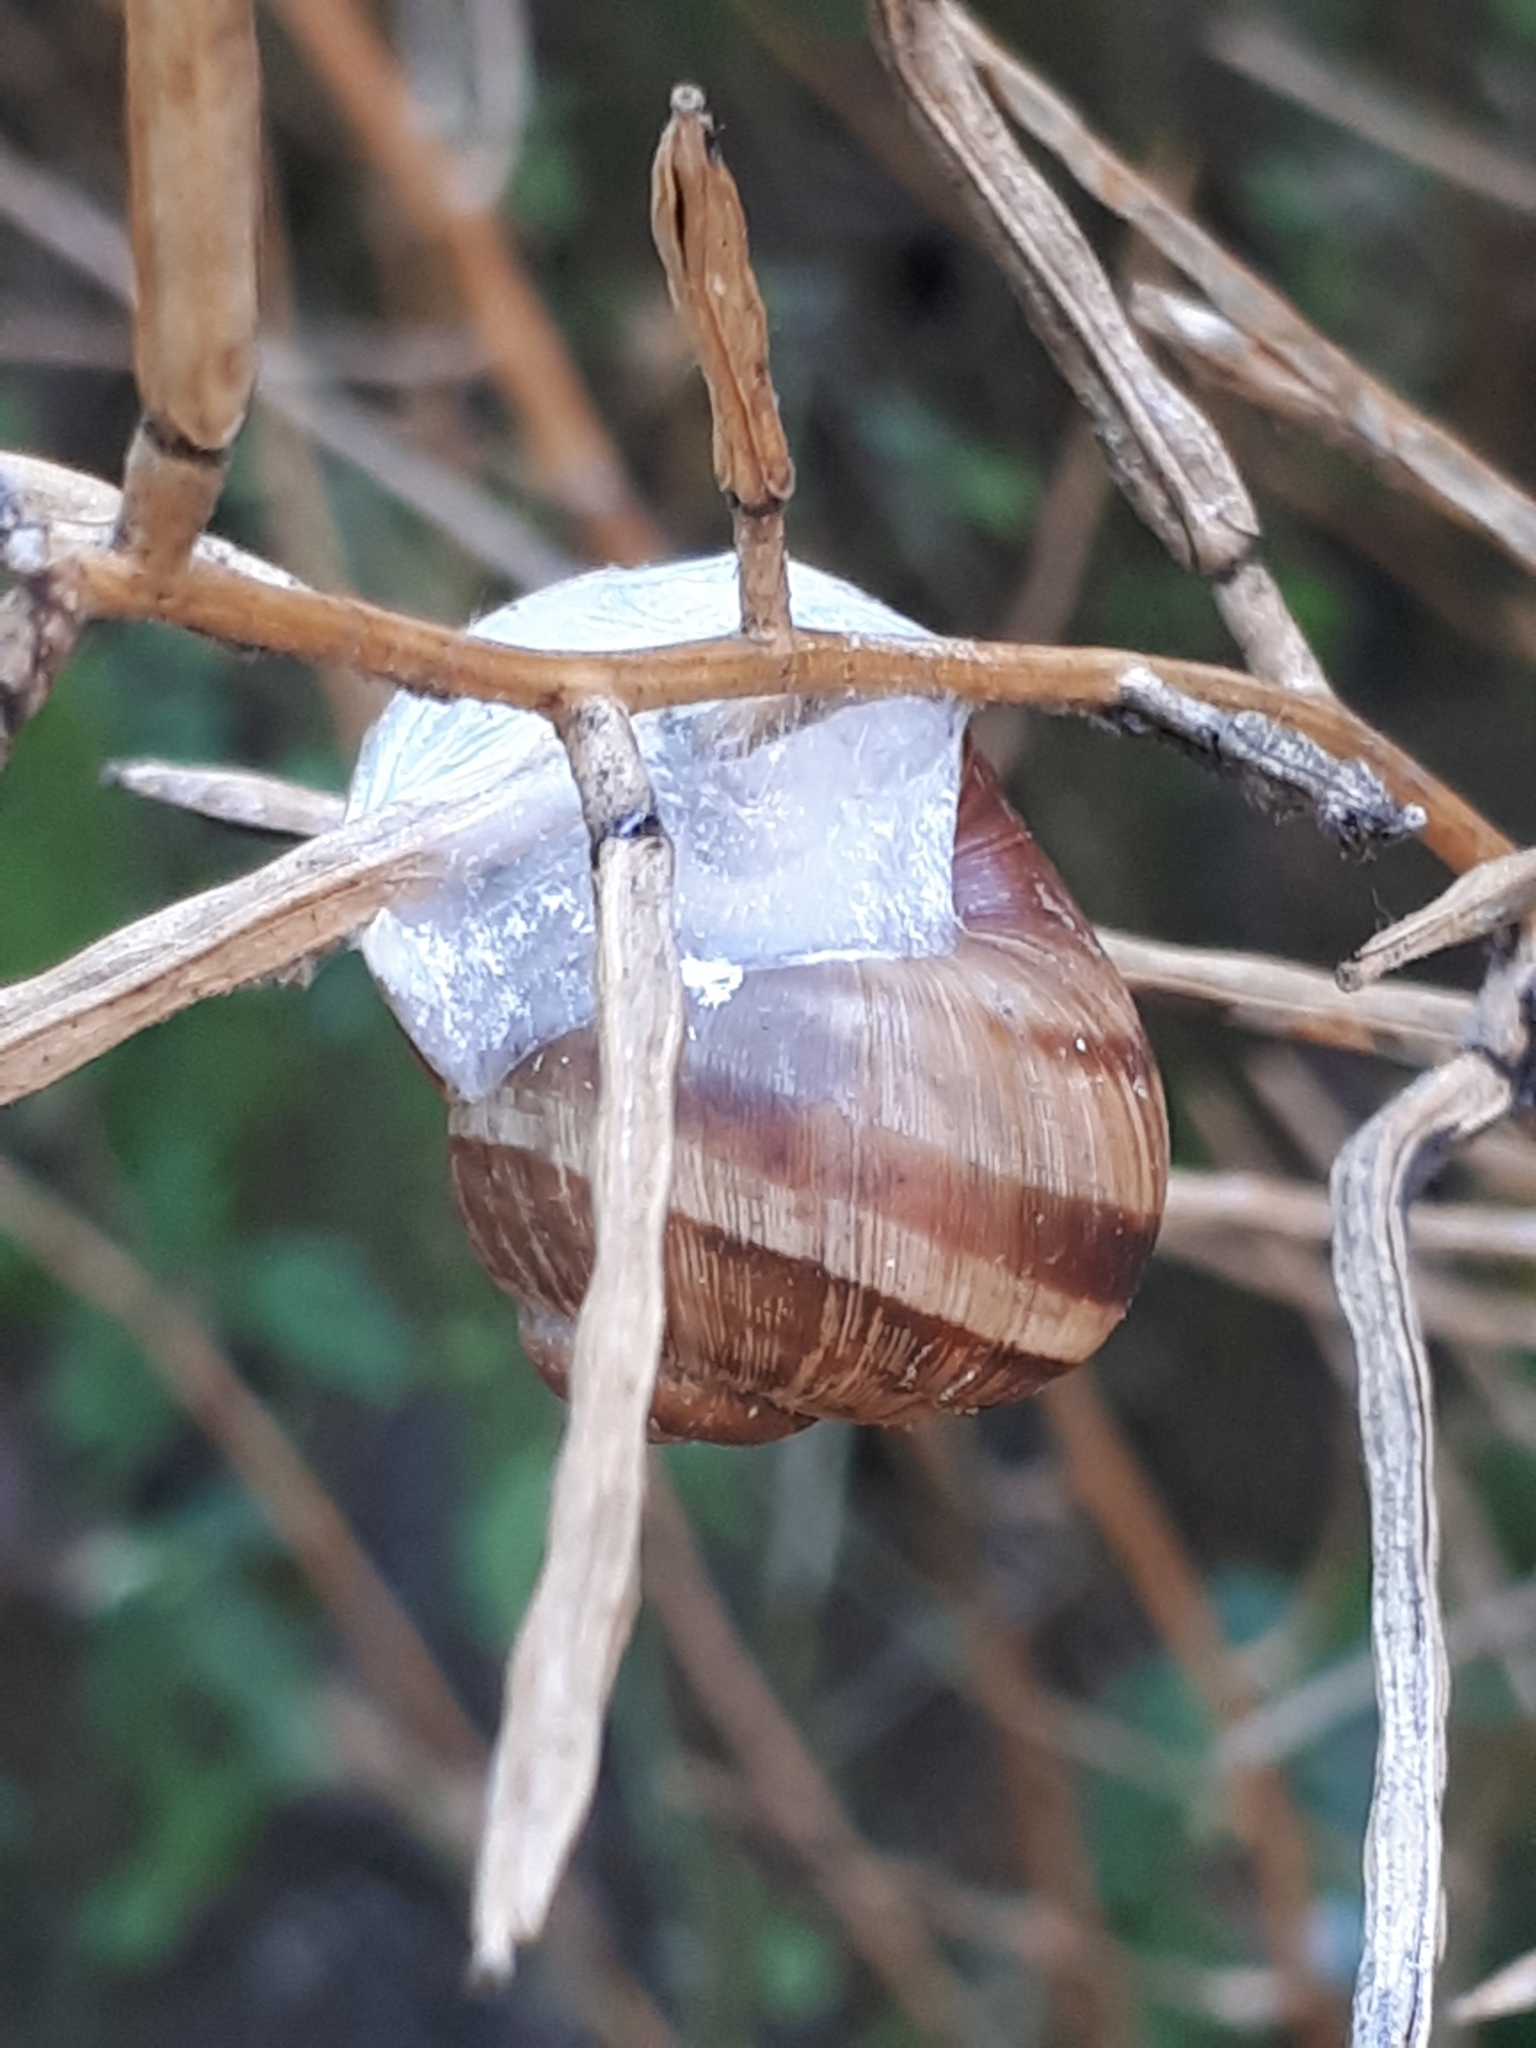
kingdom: Animalia
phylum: Mollusca
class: Gastropoda
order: Stylommatophora
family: Helicidae
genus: Helix
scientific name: Helix pomatia
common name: Roman snail
